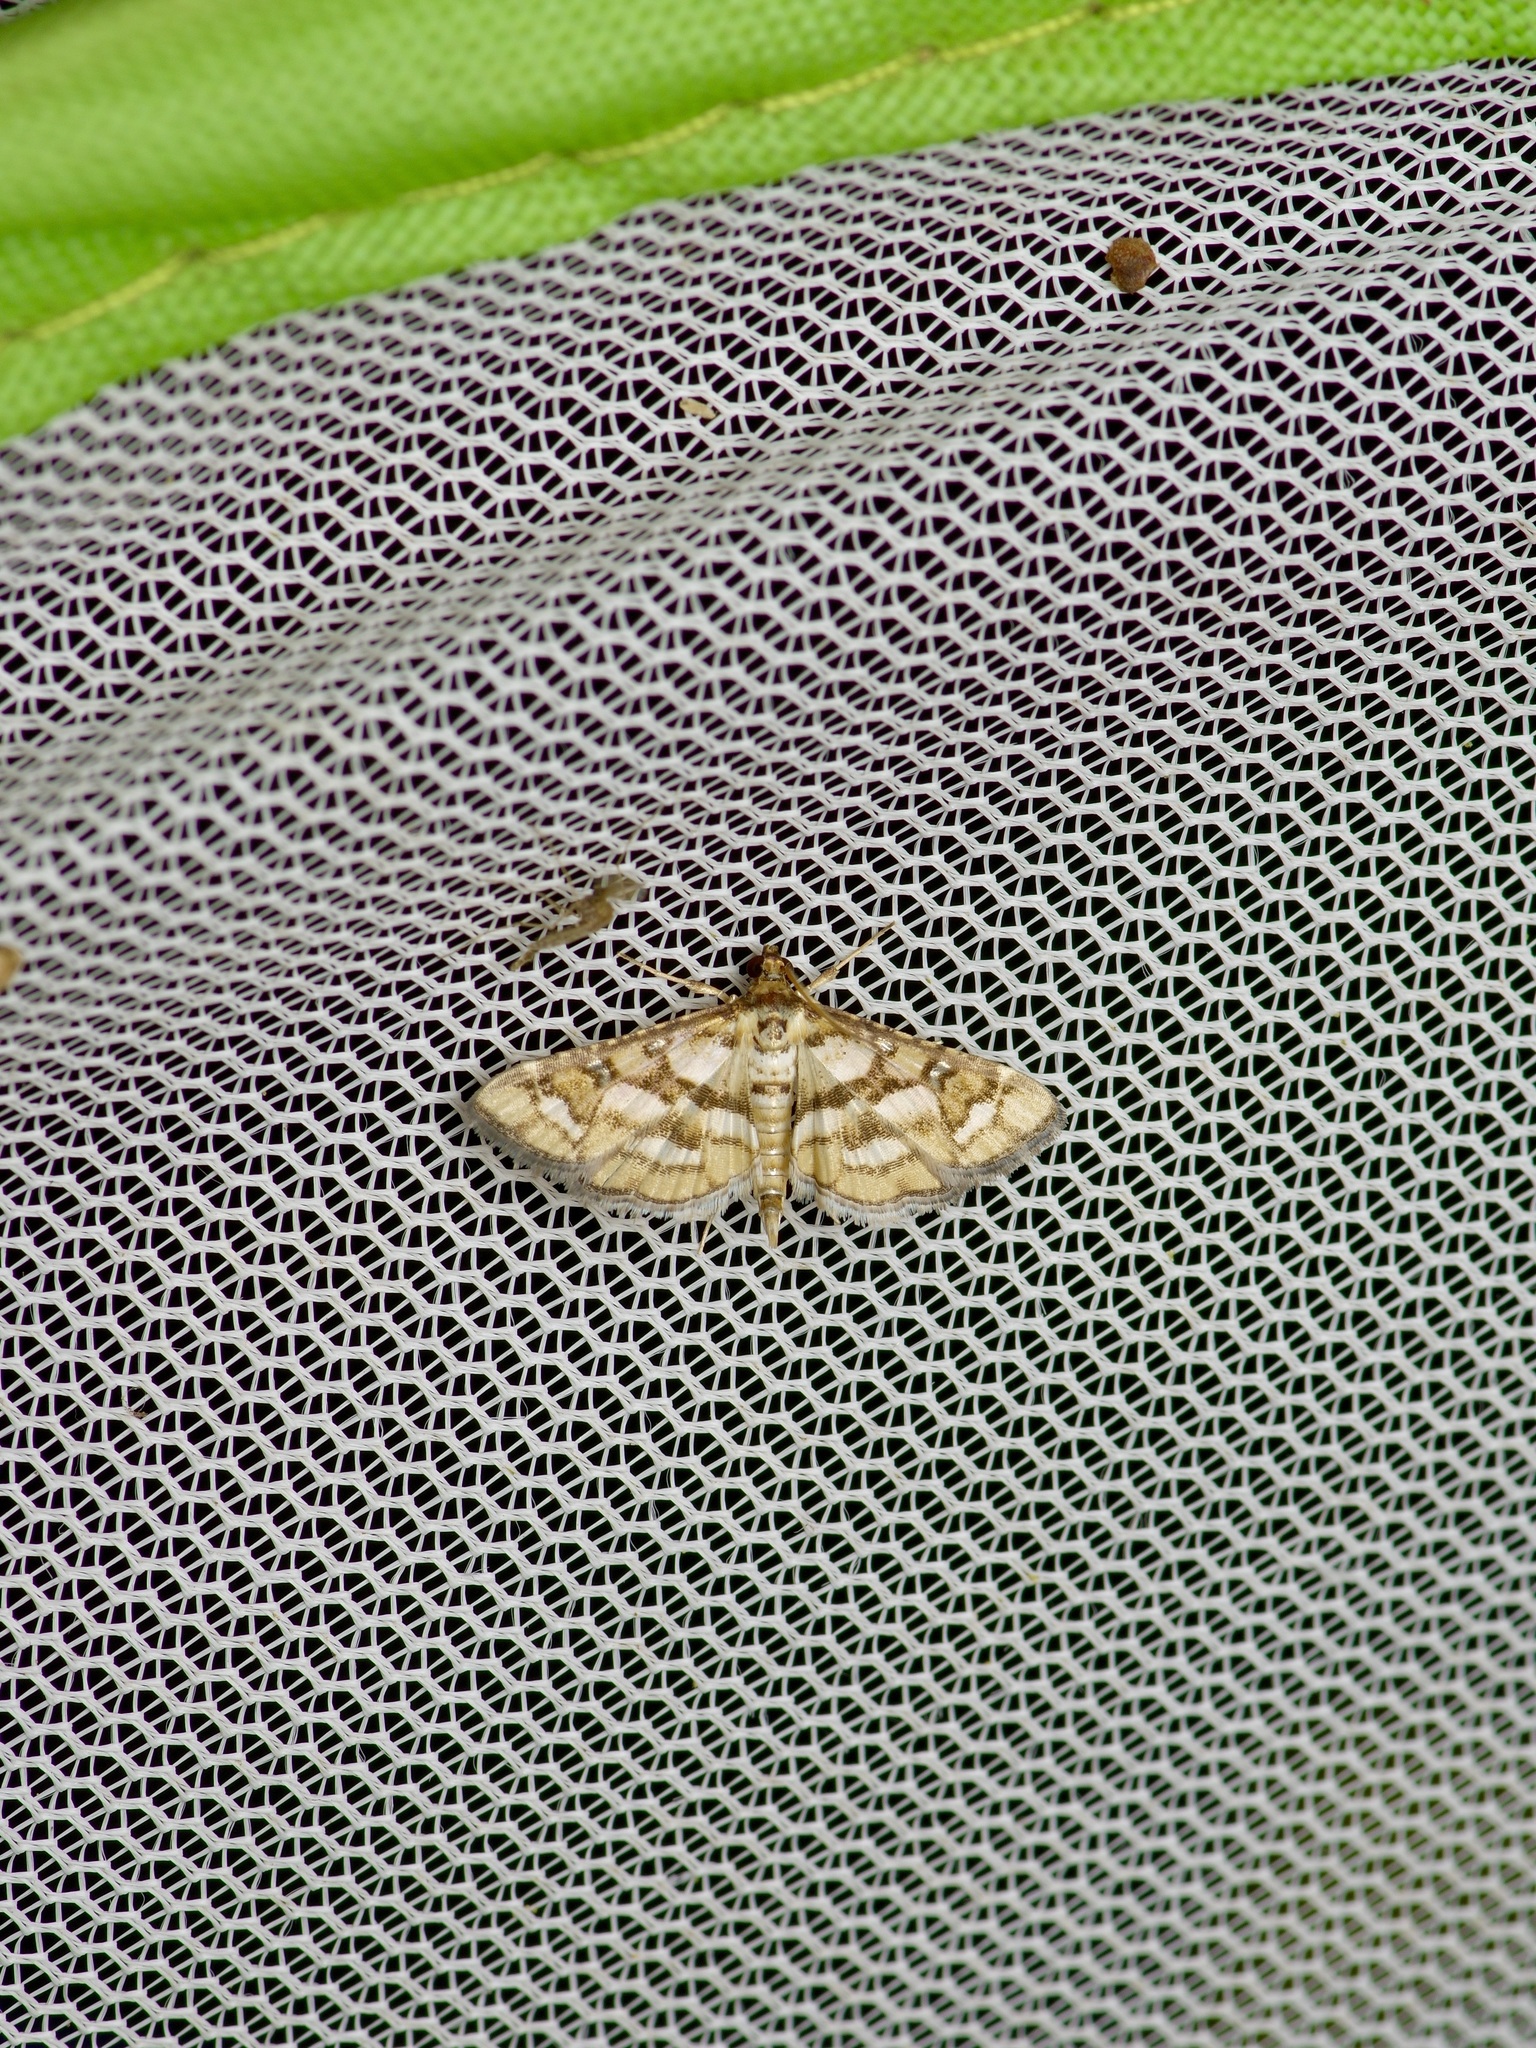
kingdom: Animalia
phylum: Arthropoda
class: Insecta
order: Lepidoptera
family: Crambidae
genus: Hileithia
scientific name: Hileithia magualis
